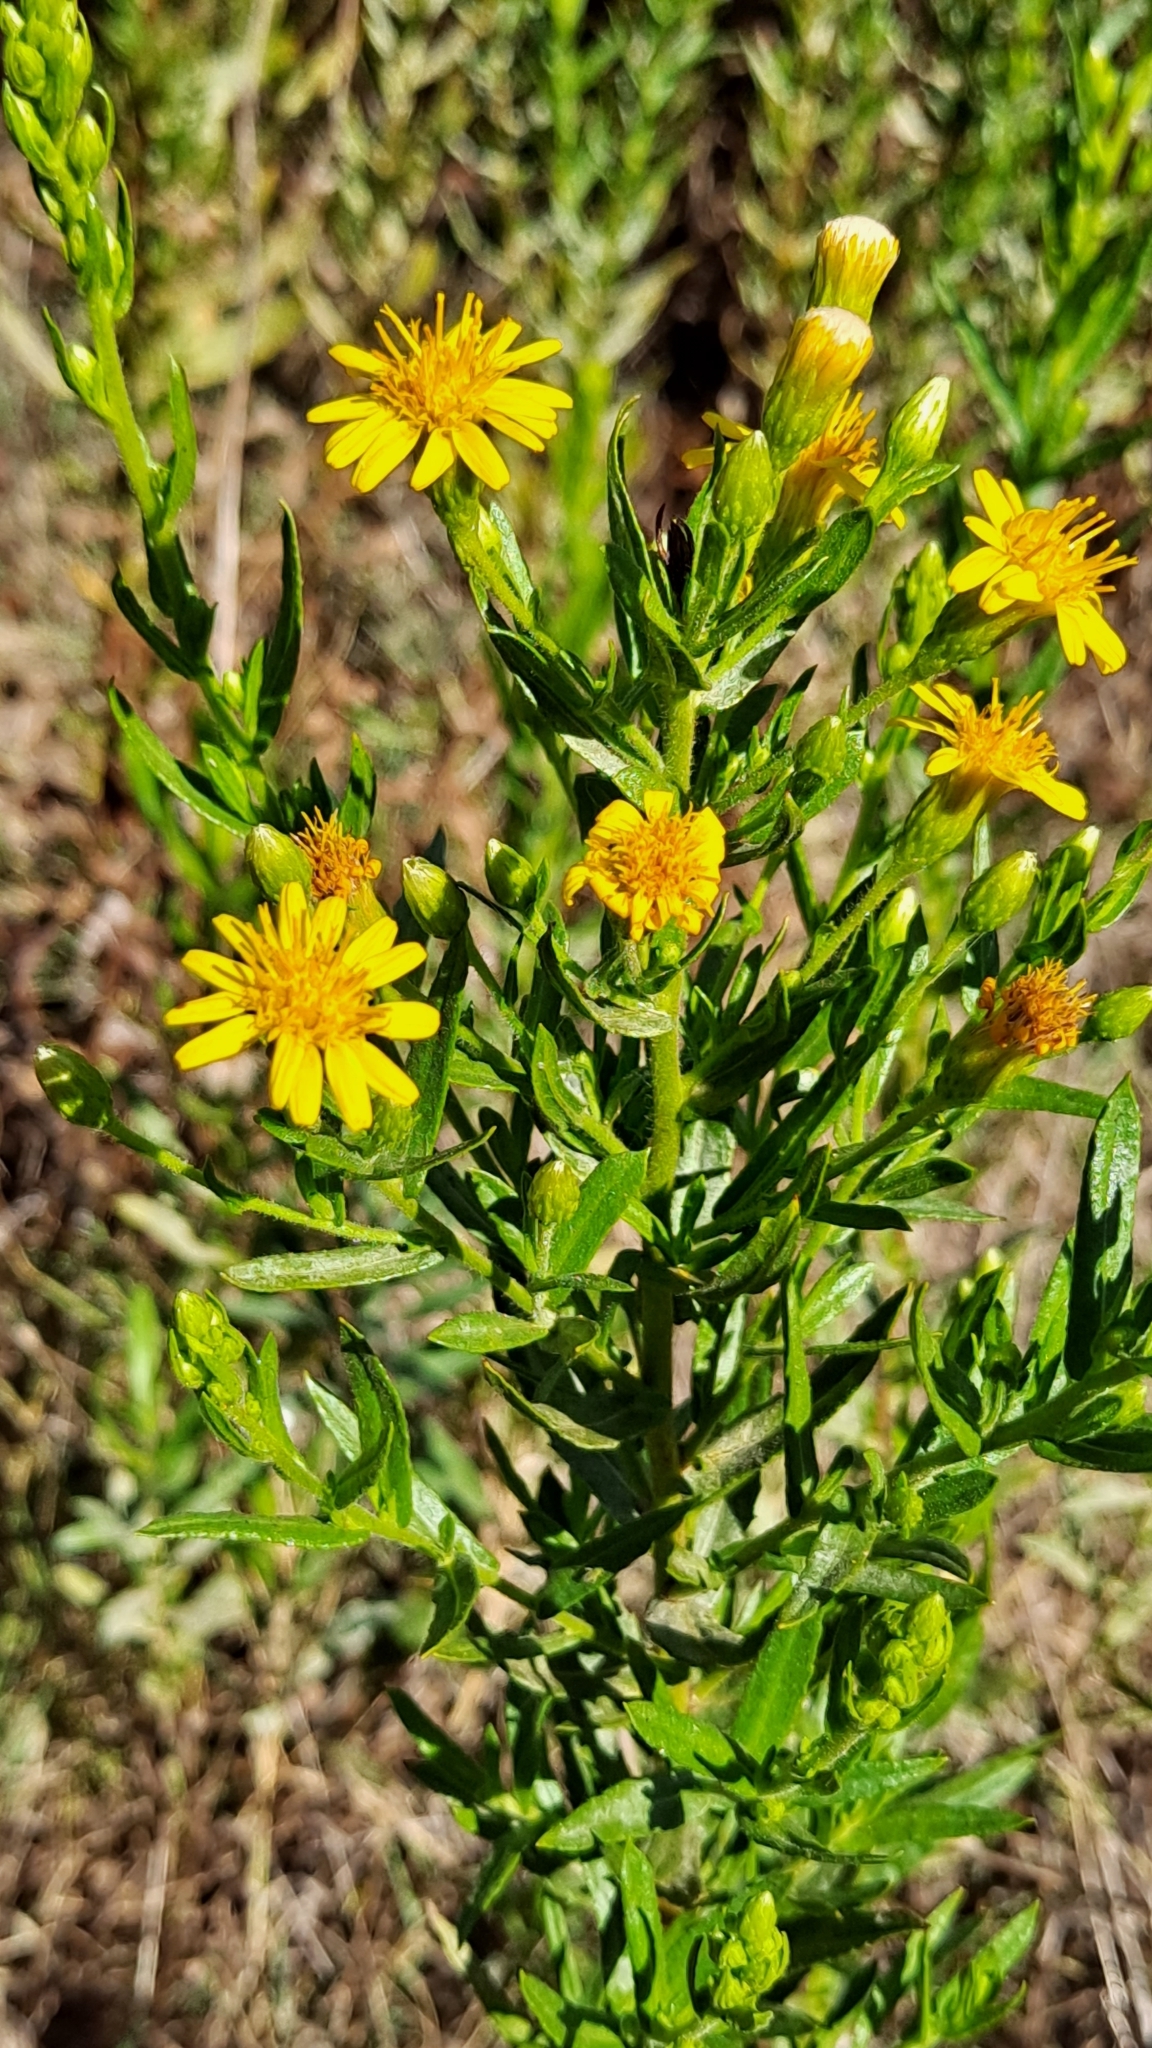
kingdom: Plantae
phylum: Tracheophyta
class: Magnoliopsida
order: Asterales
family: Asteraceae
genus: Dittrichia
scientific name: Dittrichia viscosa
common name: Woody fleabane
